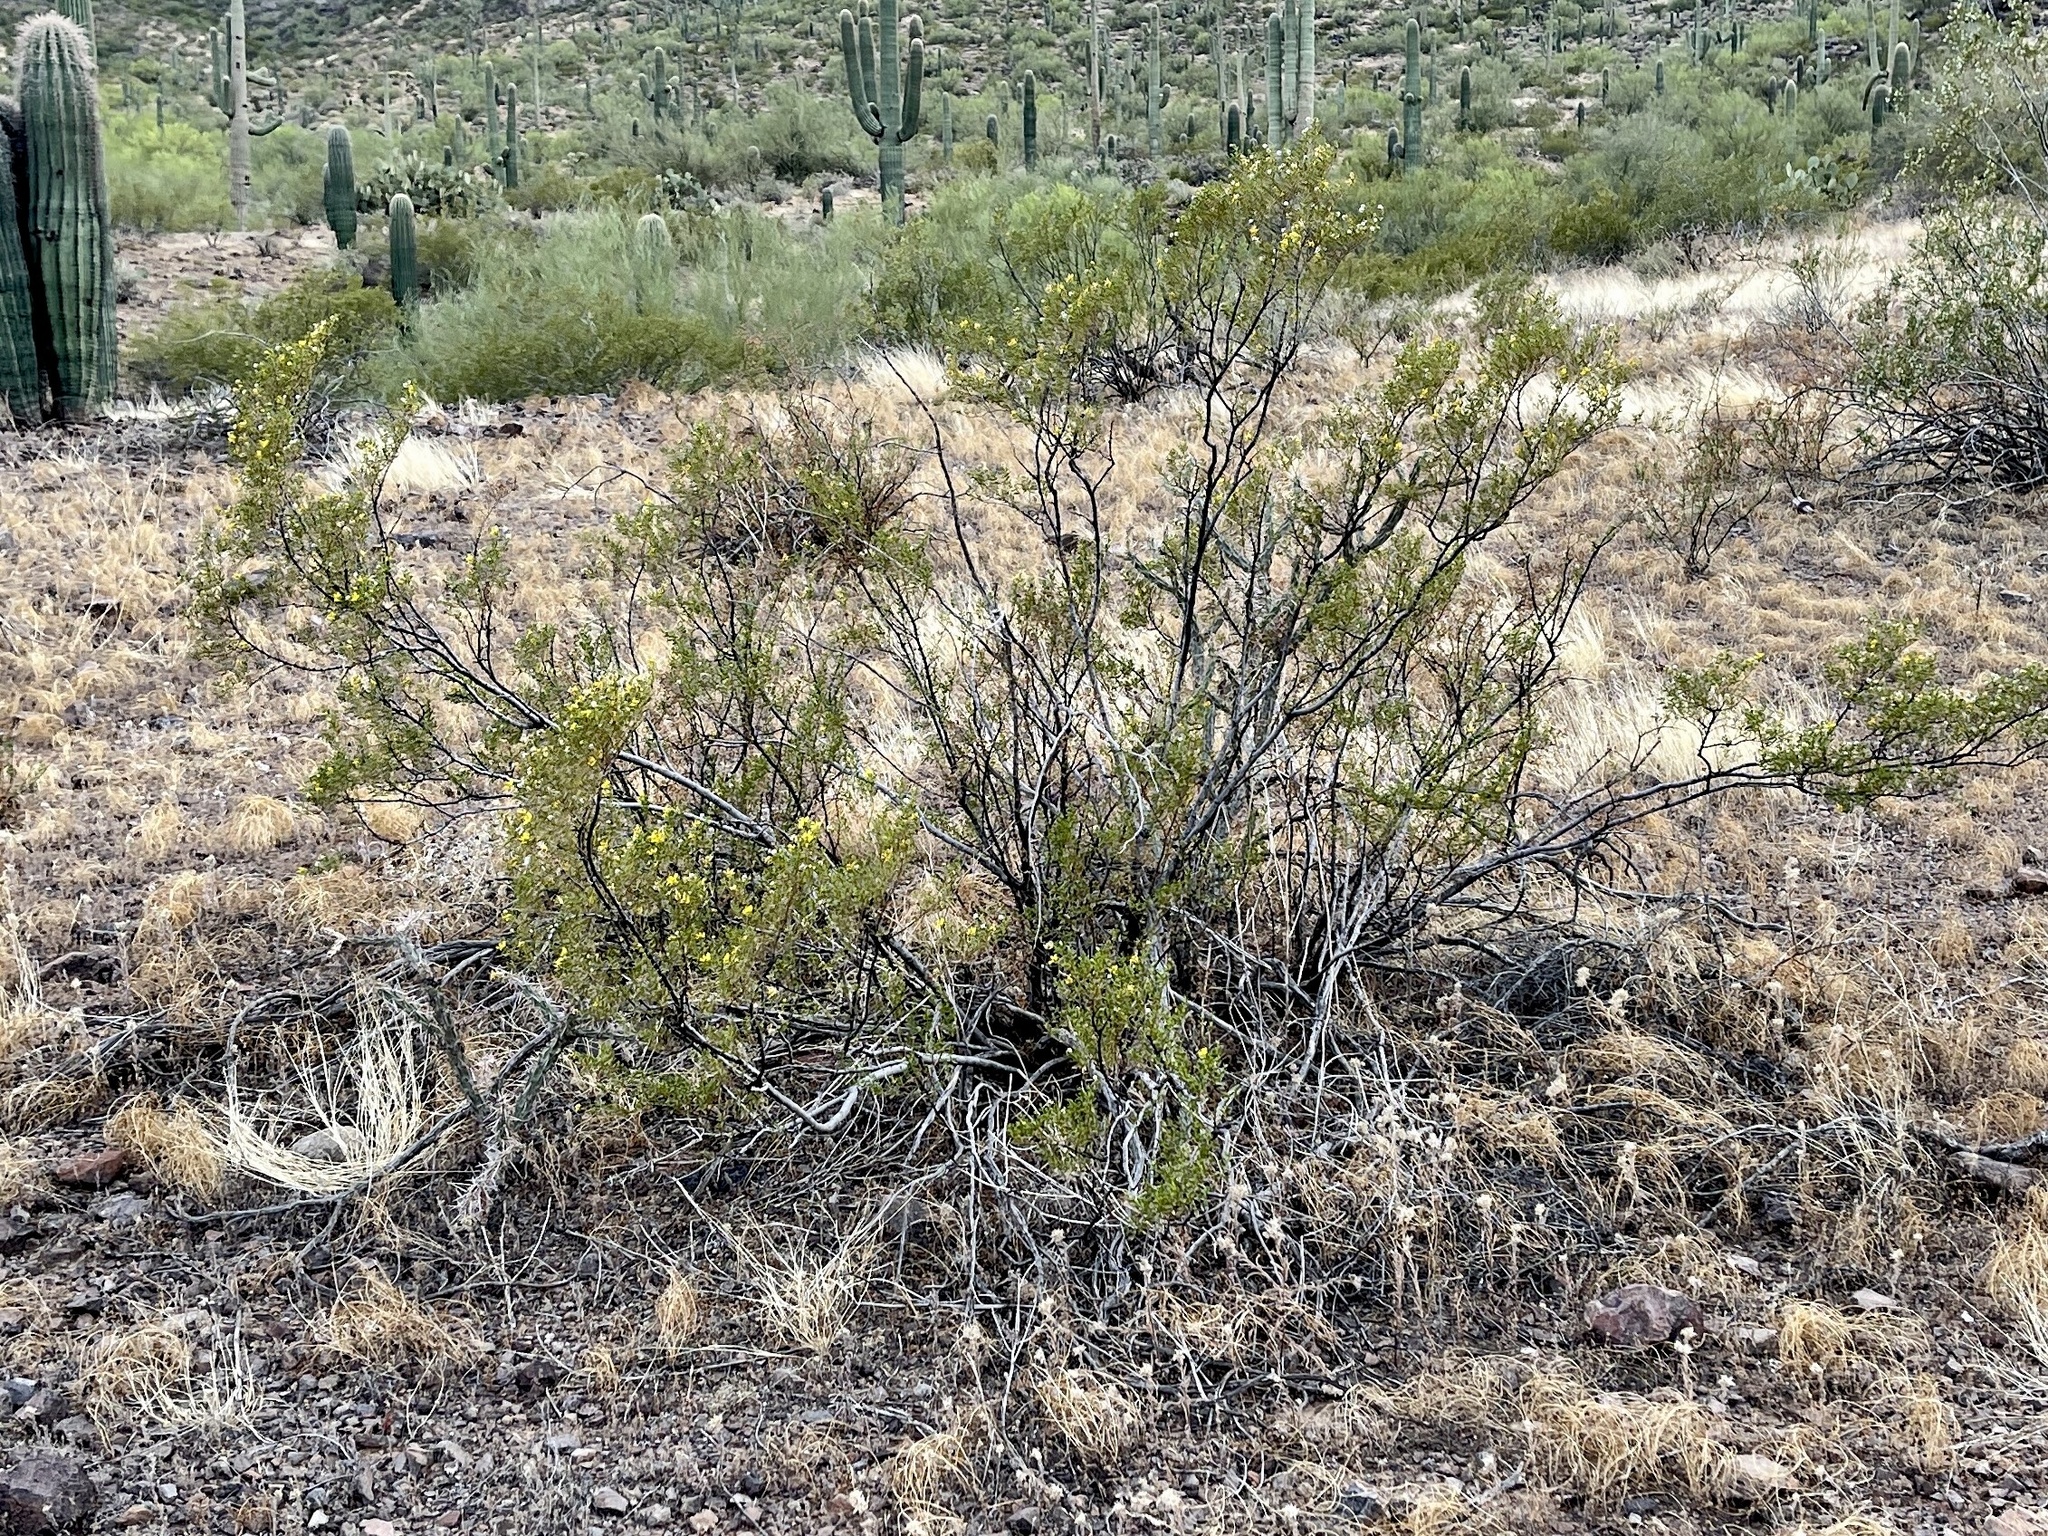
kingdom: Plantae
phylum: Tracheophyta
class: Magnoliopsida
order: Zygophyllales
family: Zygophyllaceae
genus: Larrea
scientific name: Larrea tridentata
